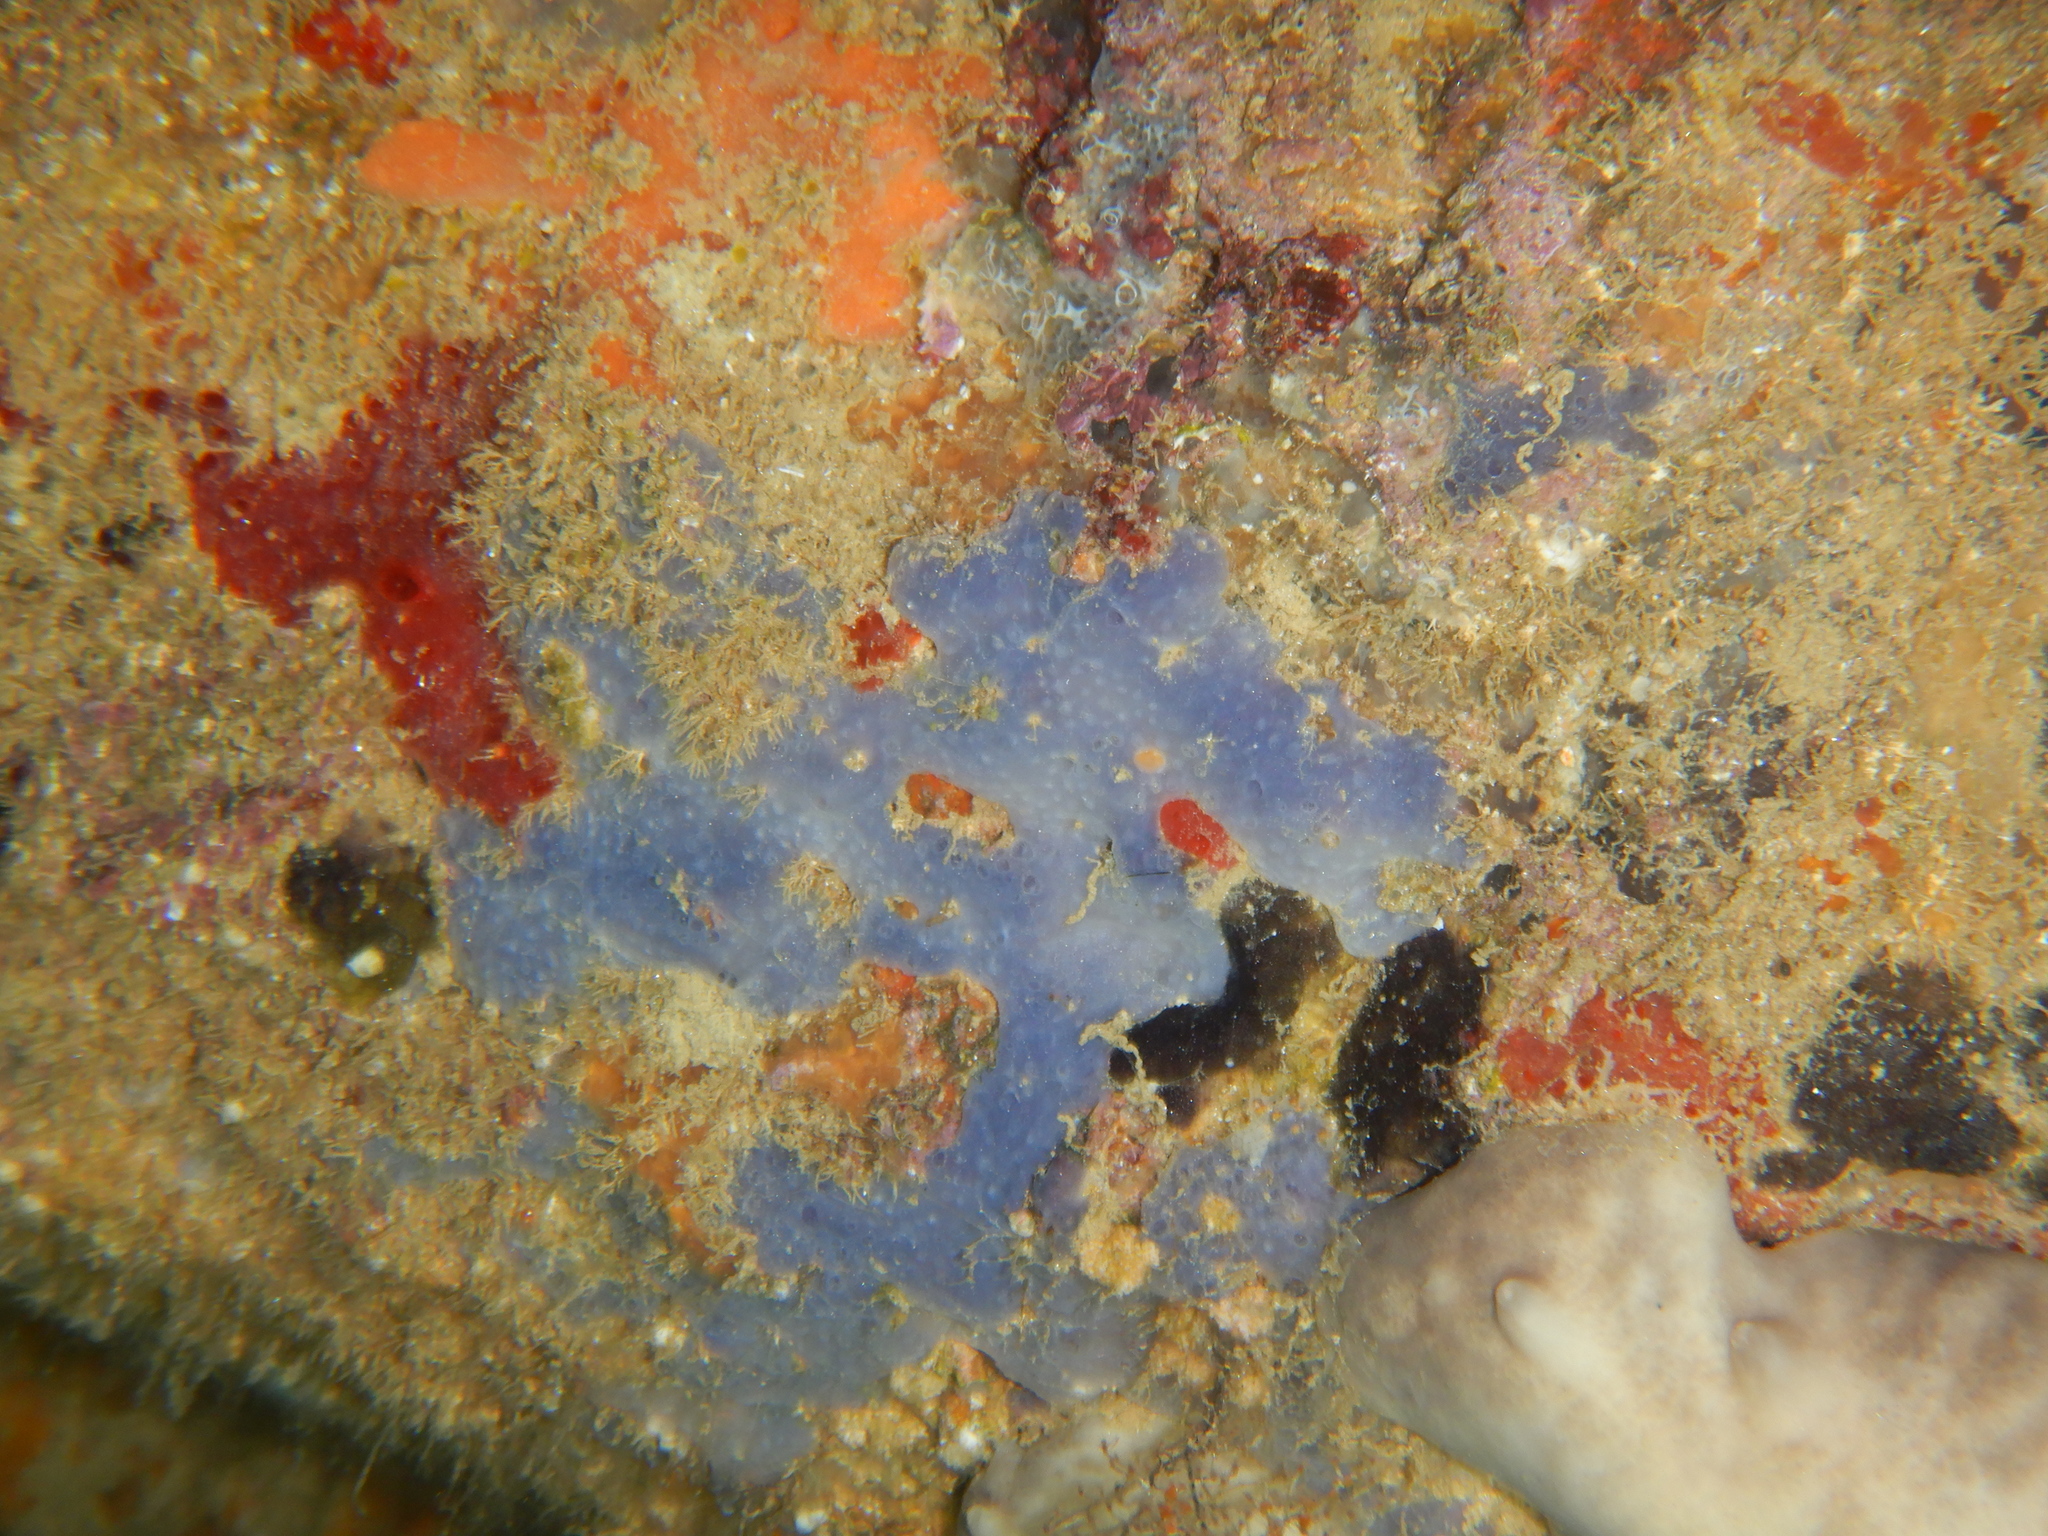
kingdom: Animalia
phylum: Porifera
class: Demospongiae
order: Poecilosclerida
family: Hymedesmiidae
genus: Phorbas
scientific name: Phorbas tenacior
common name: Bluish encrusting sponge
